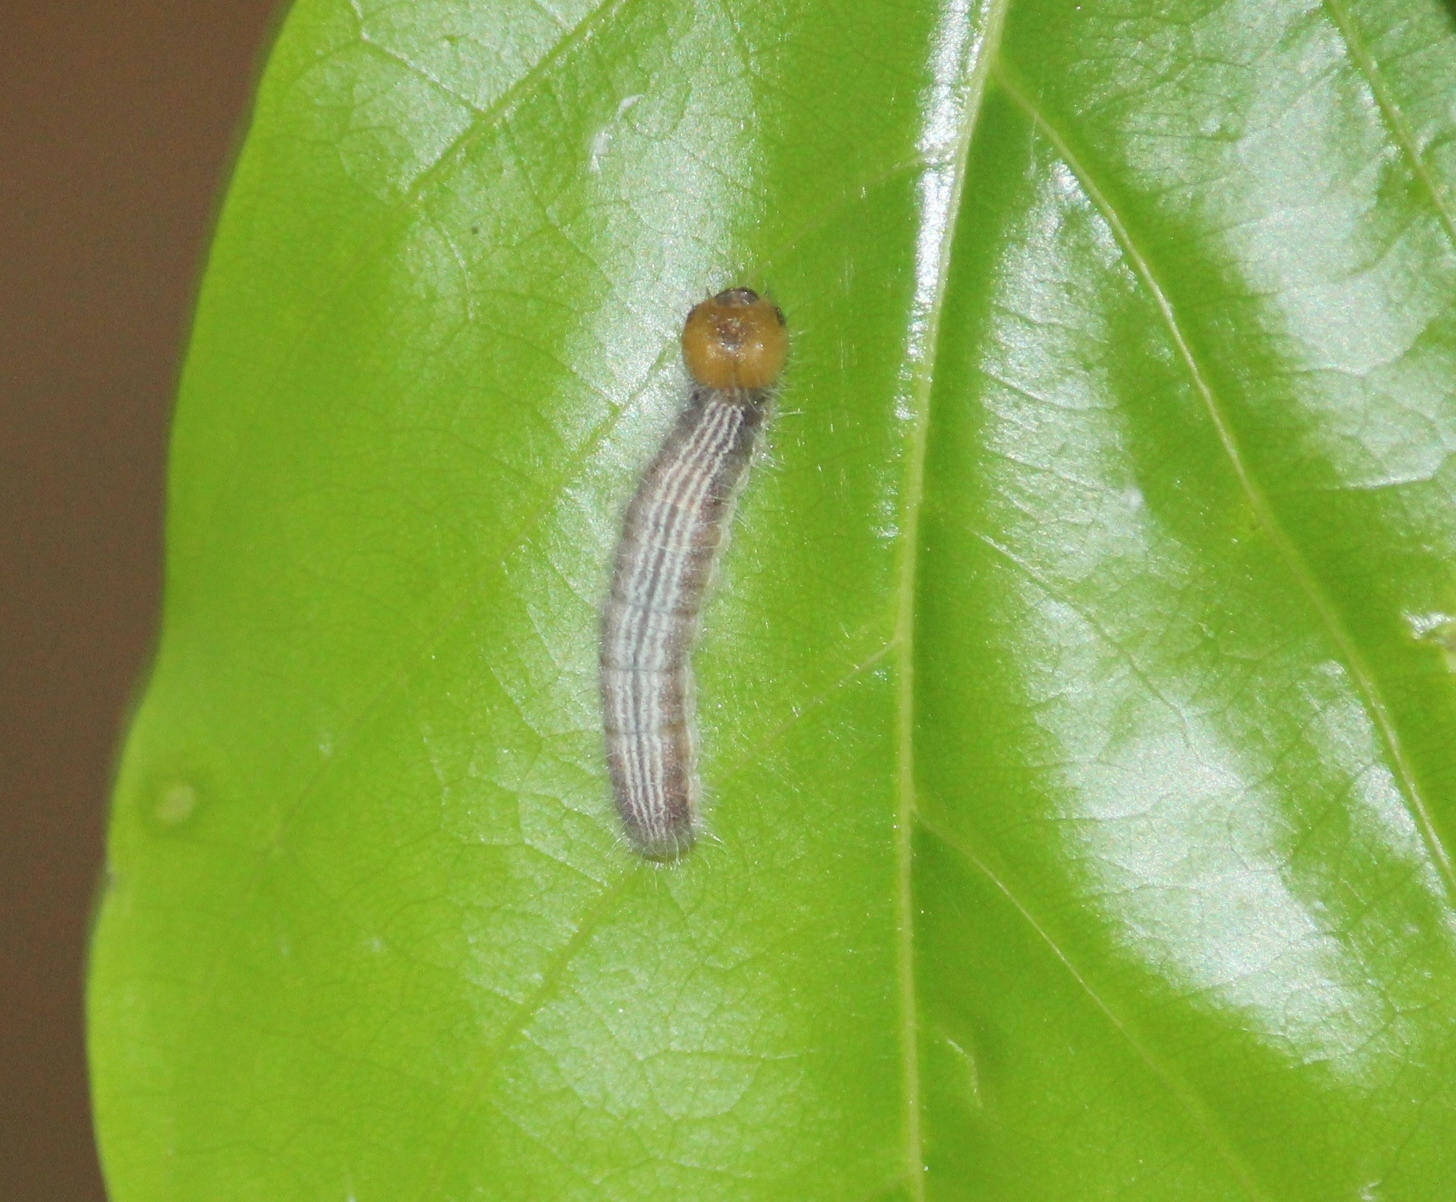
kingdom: Animalia
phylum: Arthropoda
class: Insecta
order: Lepidoptera
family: Hesperiidae
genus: Hasora
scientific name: Hasora chromus
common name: Common banded awl
